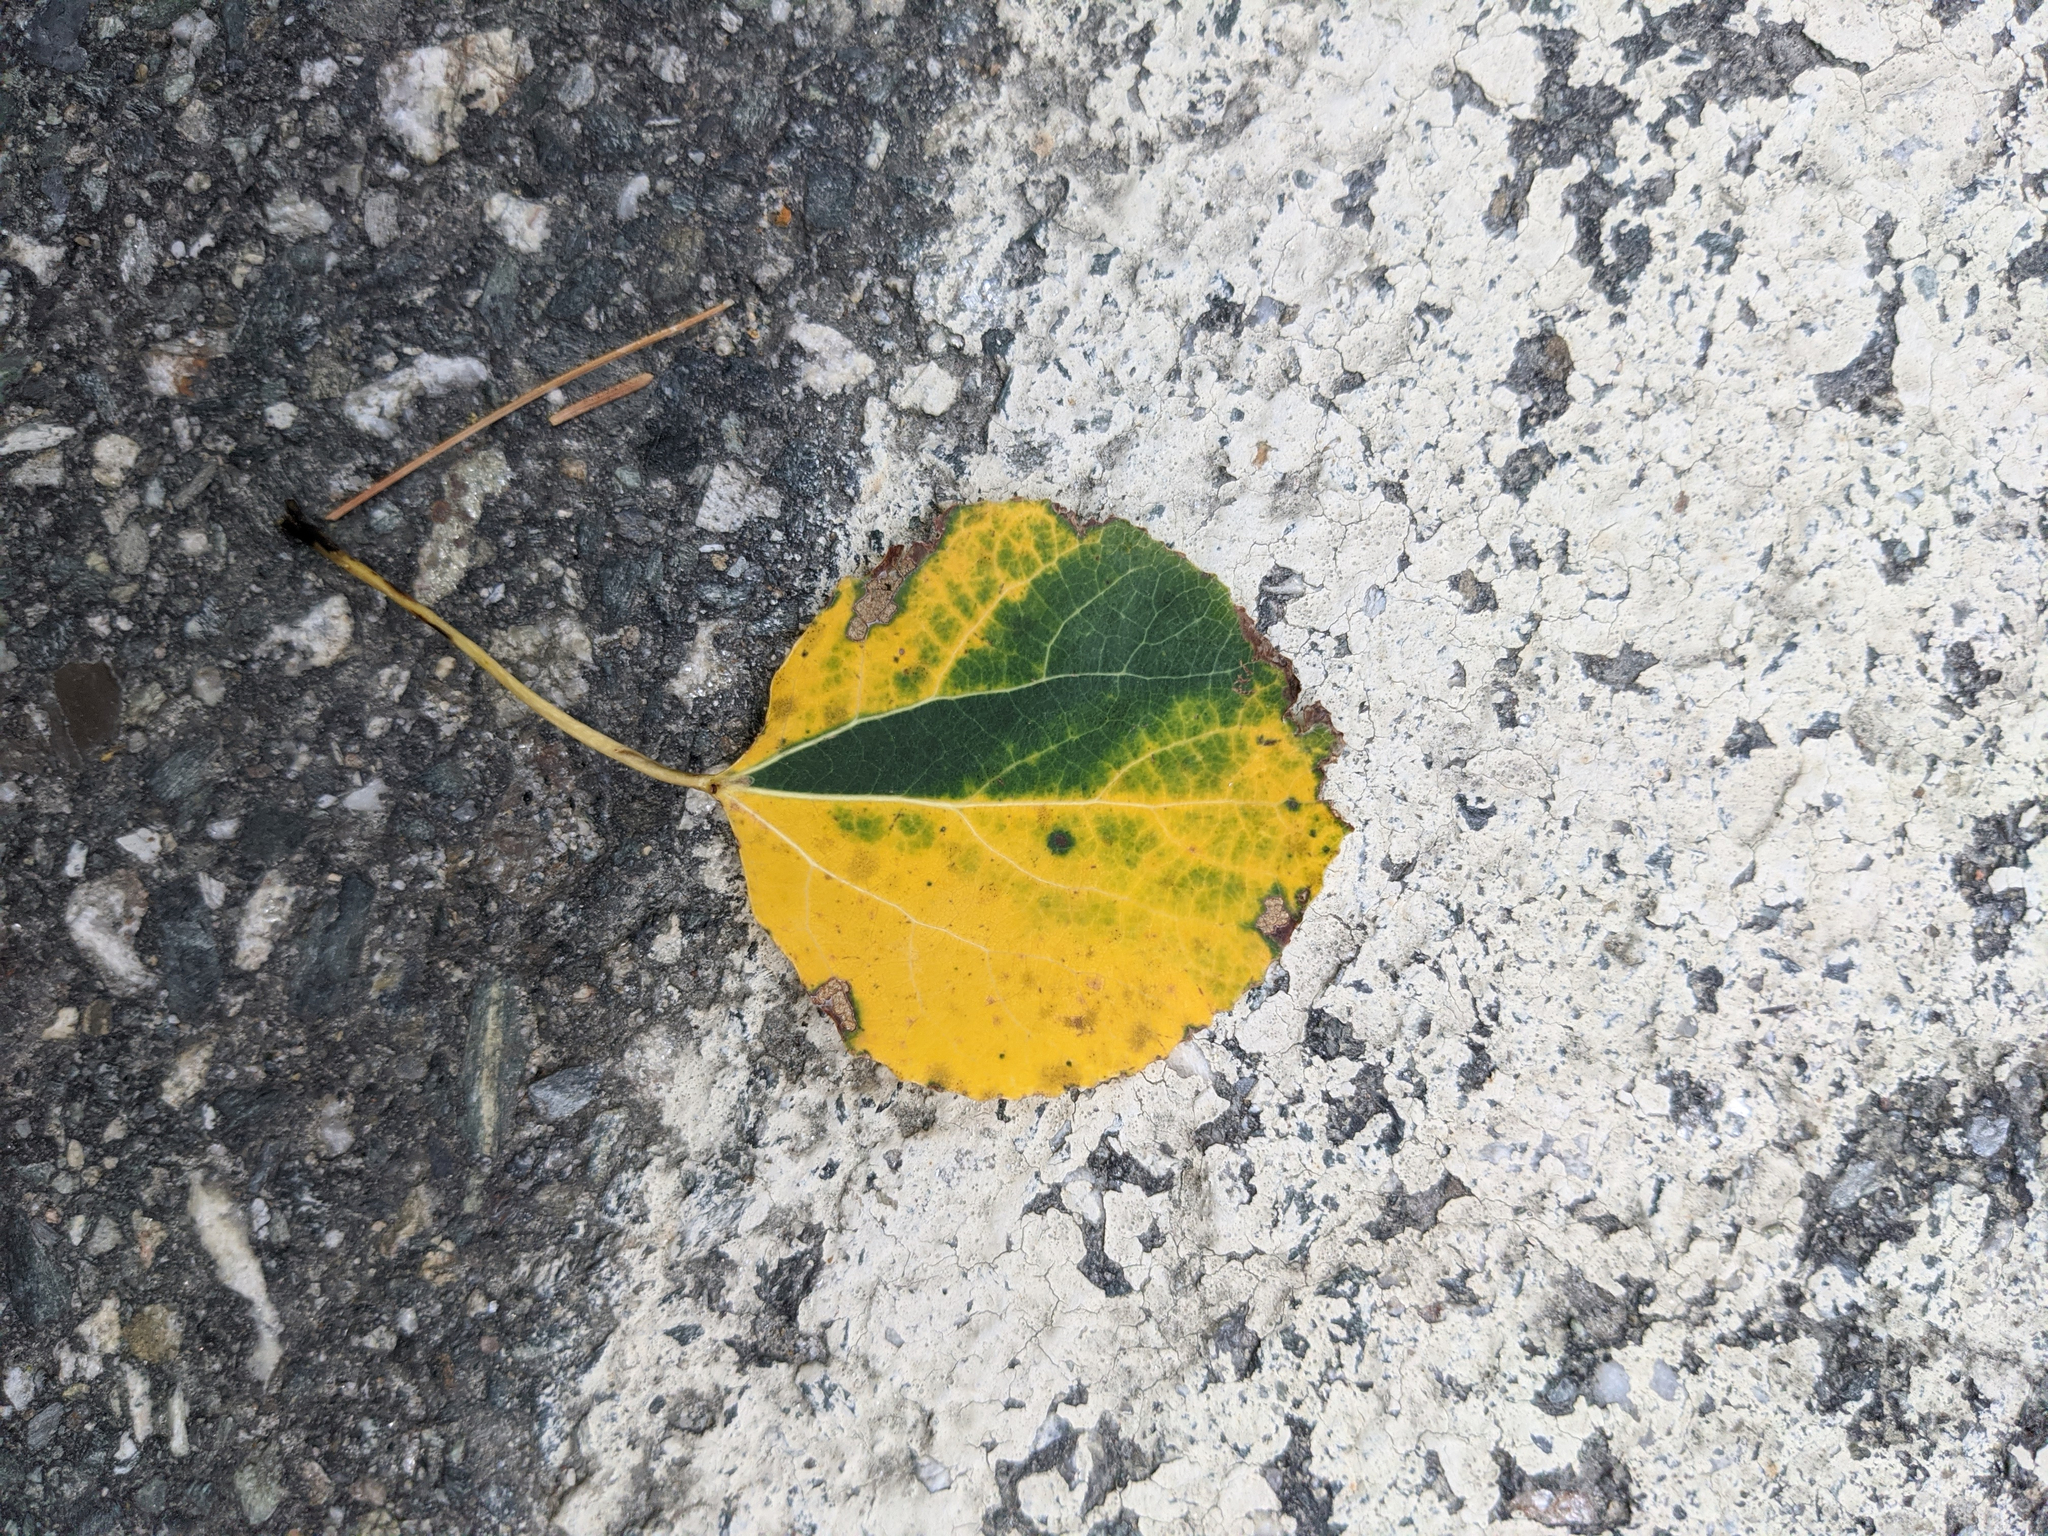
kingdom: Plantae
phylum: Tracheophyta
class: Magnoliopsida
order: Malpighiales
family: Salicaceae
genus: Populus
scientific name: Populus tremuloides
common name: Quaking aspen
